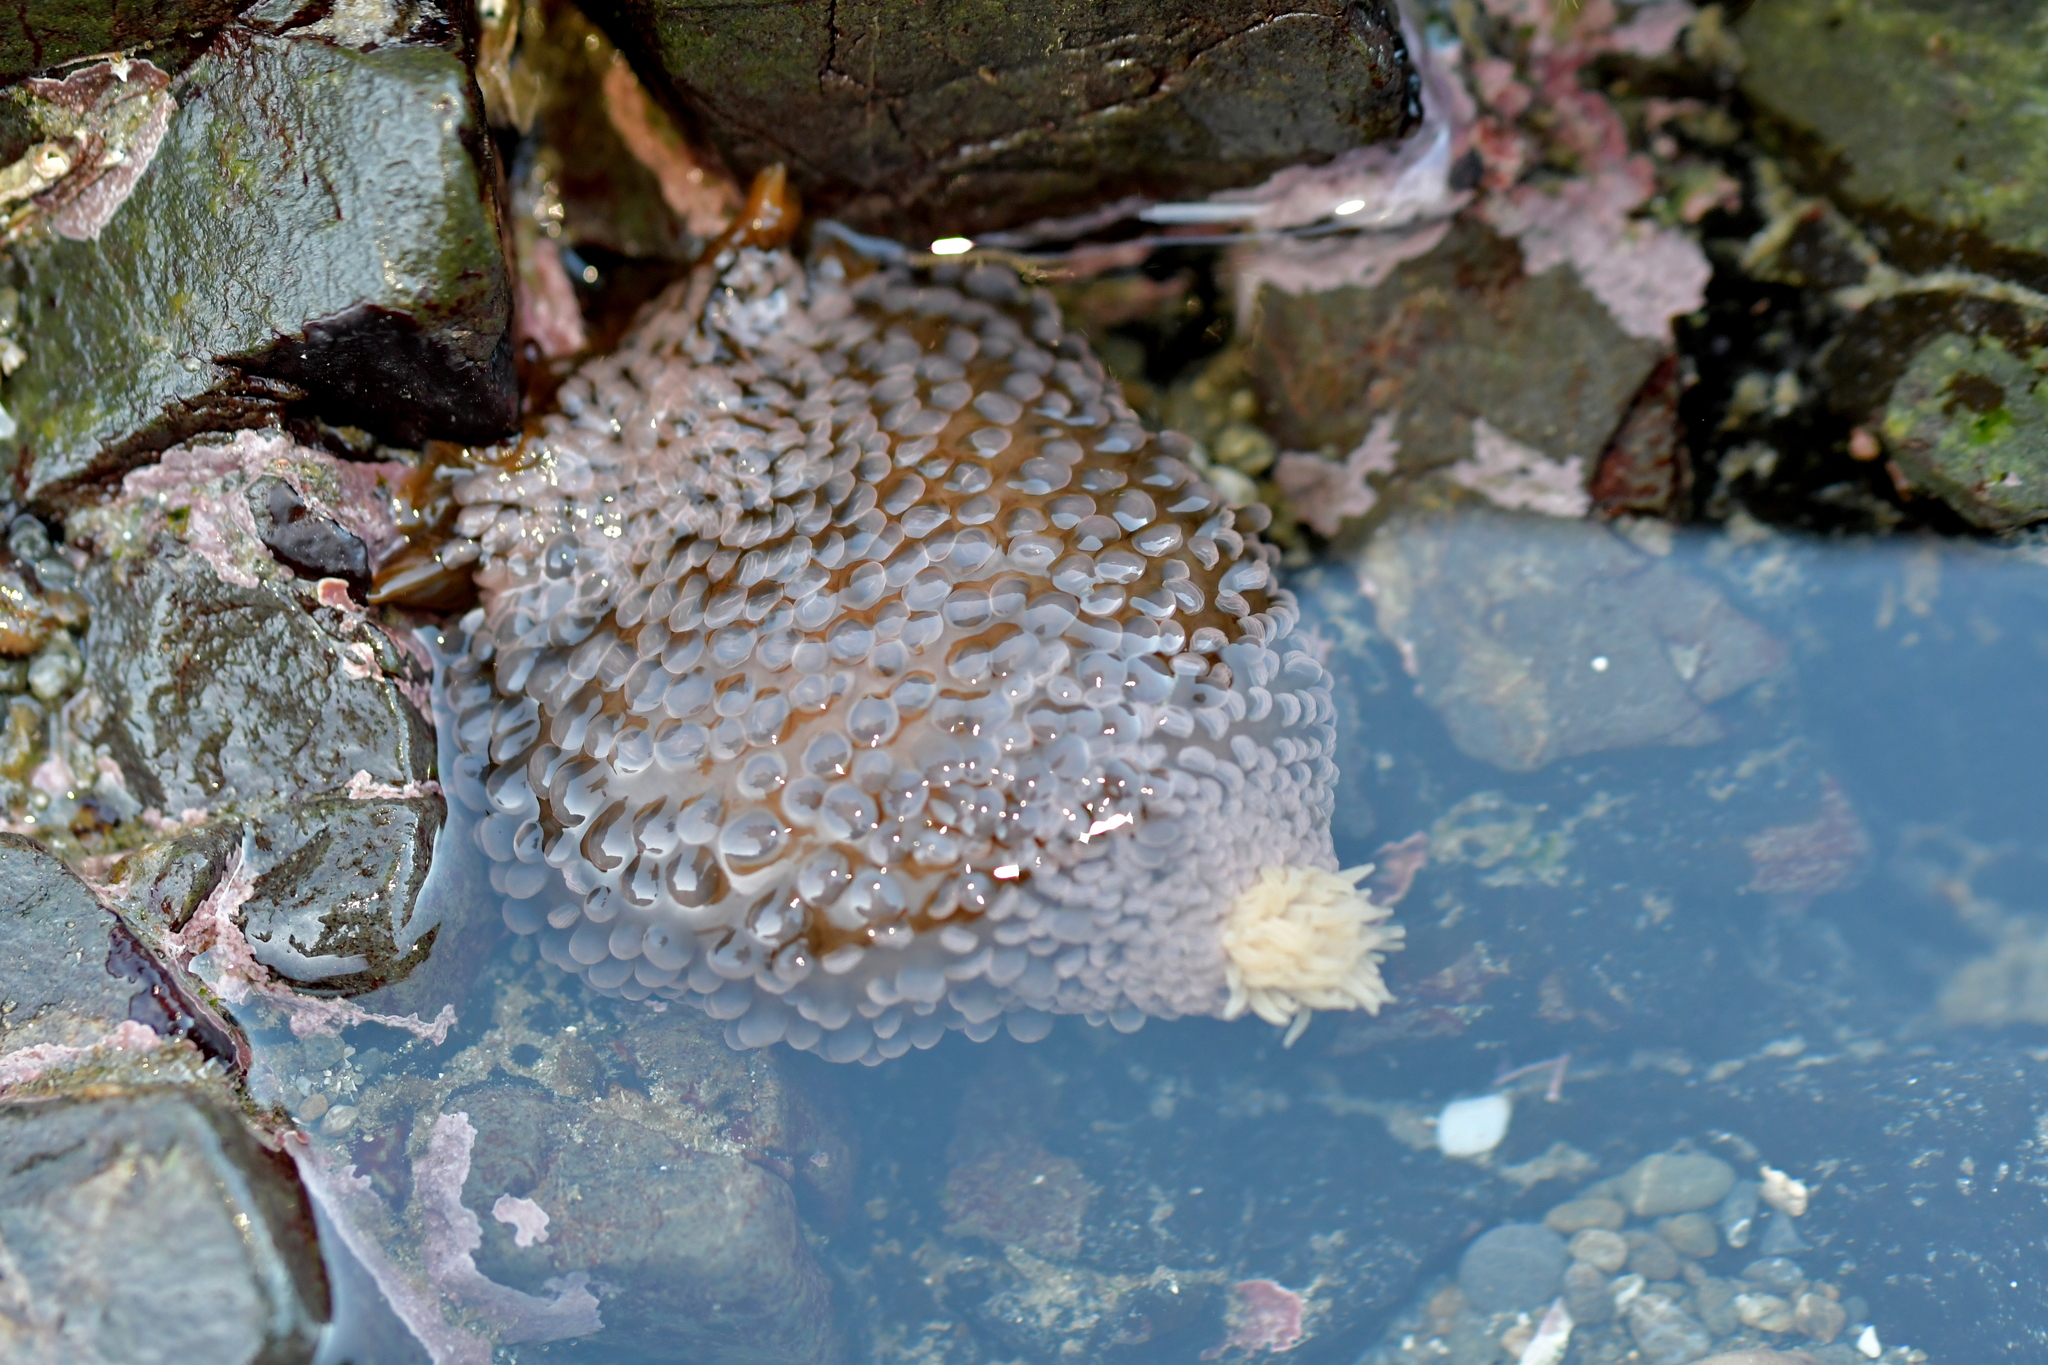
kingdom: Animalia
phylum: Cnidaria
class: Anthozoa
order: Actiniaria
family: Actiniidae
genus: Phlyctenactis
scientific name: Phlyctenactis tuberculosa
